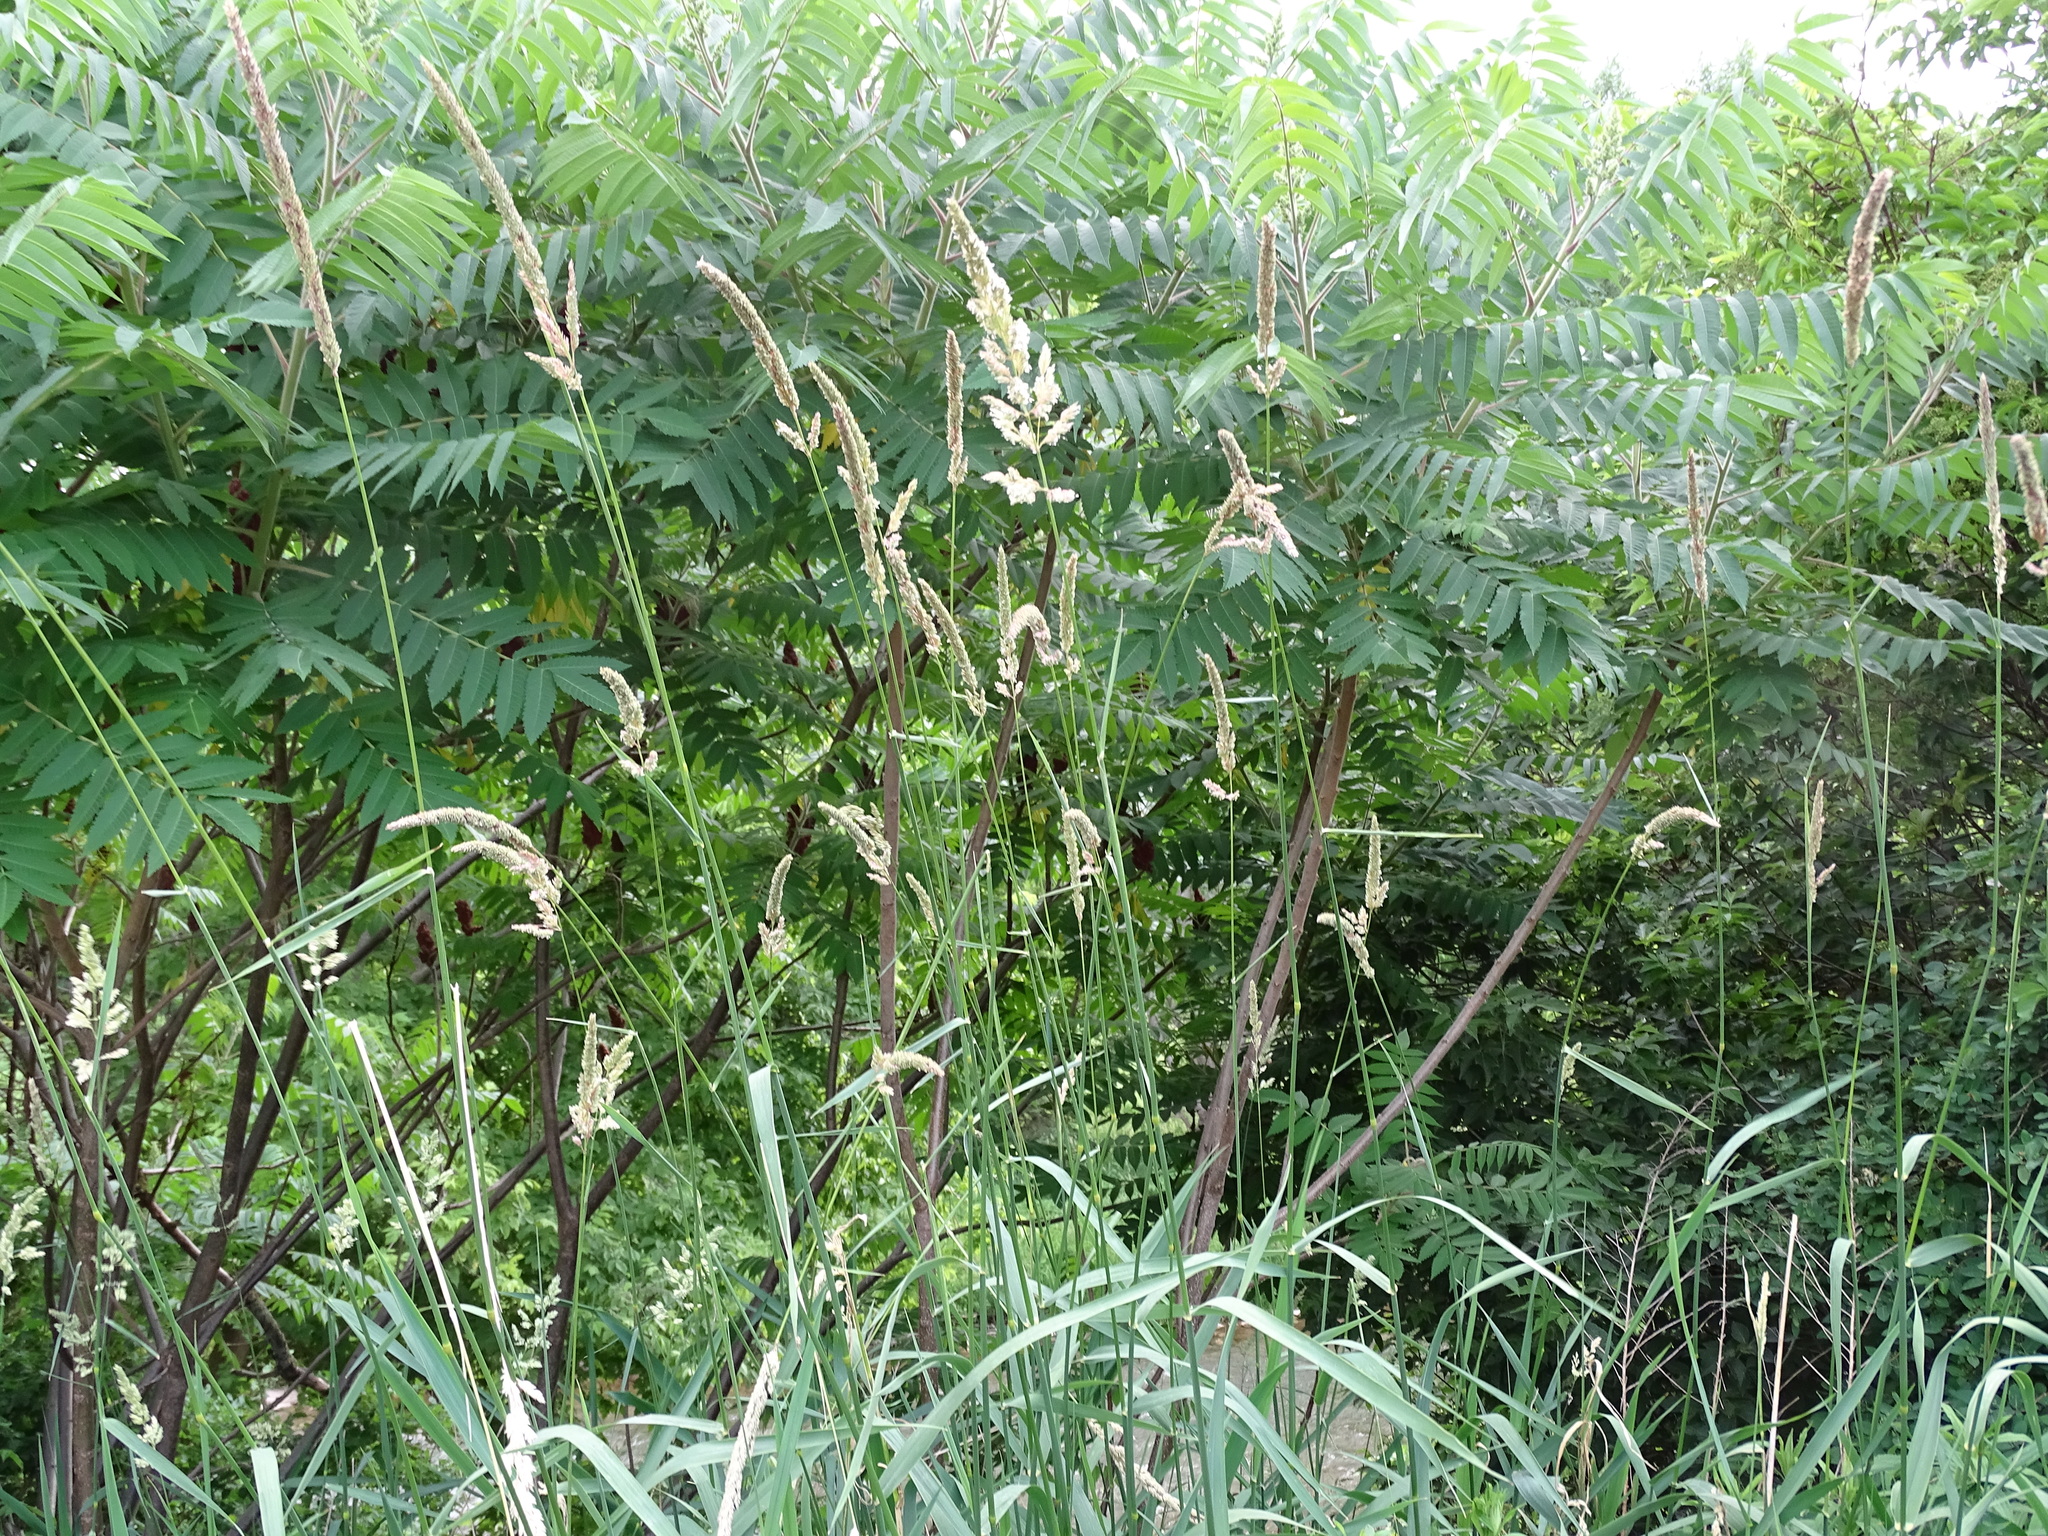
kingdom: Plantae
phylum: Tracheophyta
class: Liliopsida
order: Poales
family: Poaceae
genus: Phalaris
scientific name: Phalaris arundinacea
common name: Reed canary-grass
